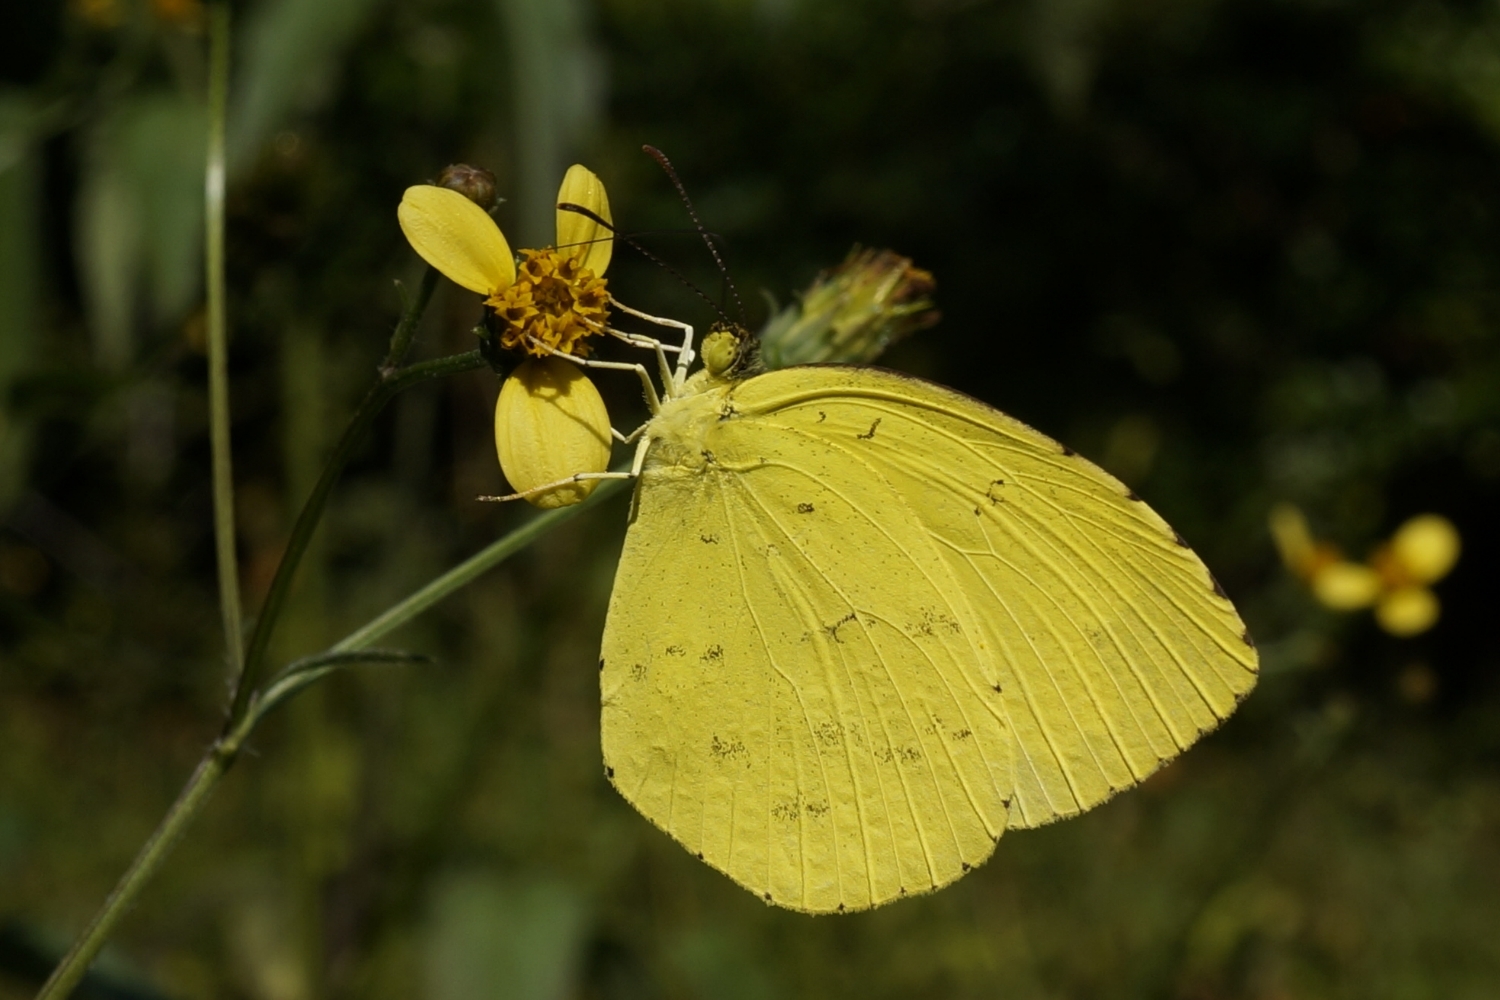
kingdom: Animalia
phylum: Arthropoda
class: Insecta
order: Lepidoptera
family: Pieridae
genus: Eurema
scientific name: Eurema hecabe
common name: Pale grass yellow
